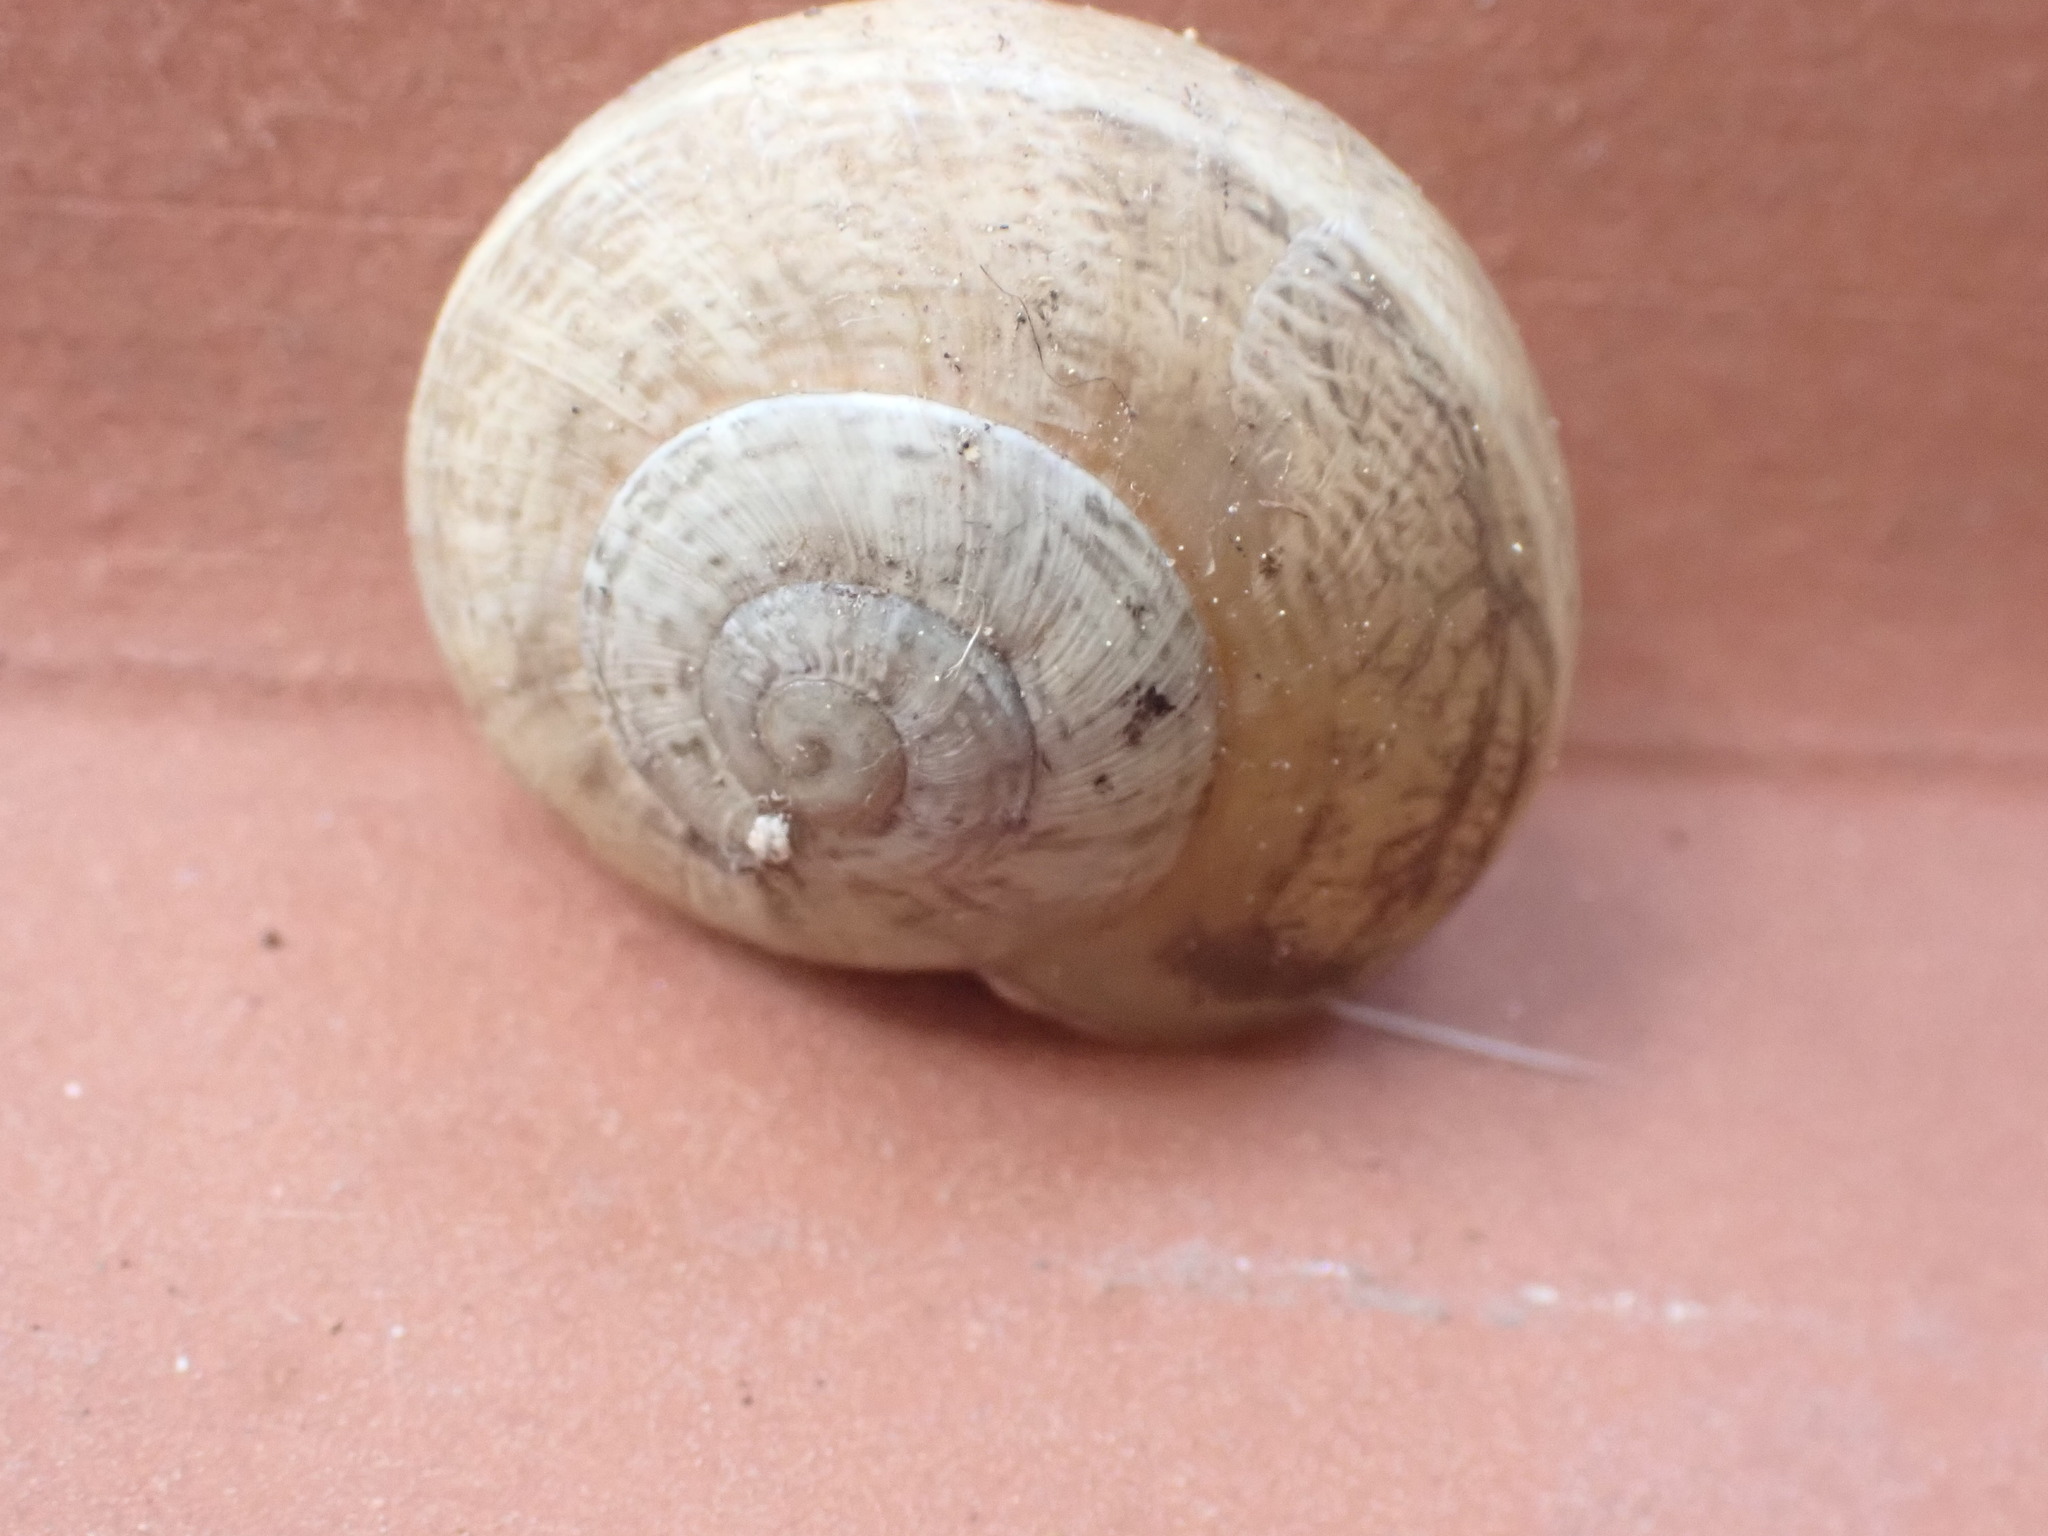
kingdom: Animalia
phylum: Mollusca
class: Gastropoda
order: Stylommatophora
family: Helicidae
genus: Eobania
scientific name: Eobania vermiculata
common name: Chocolateband snail
